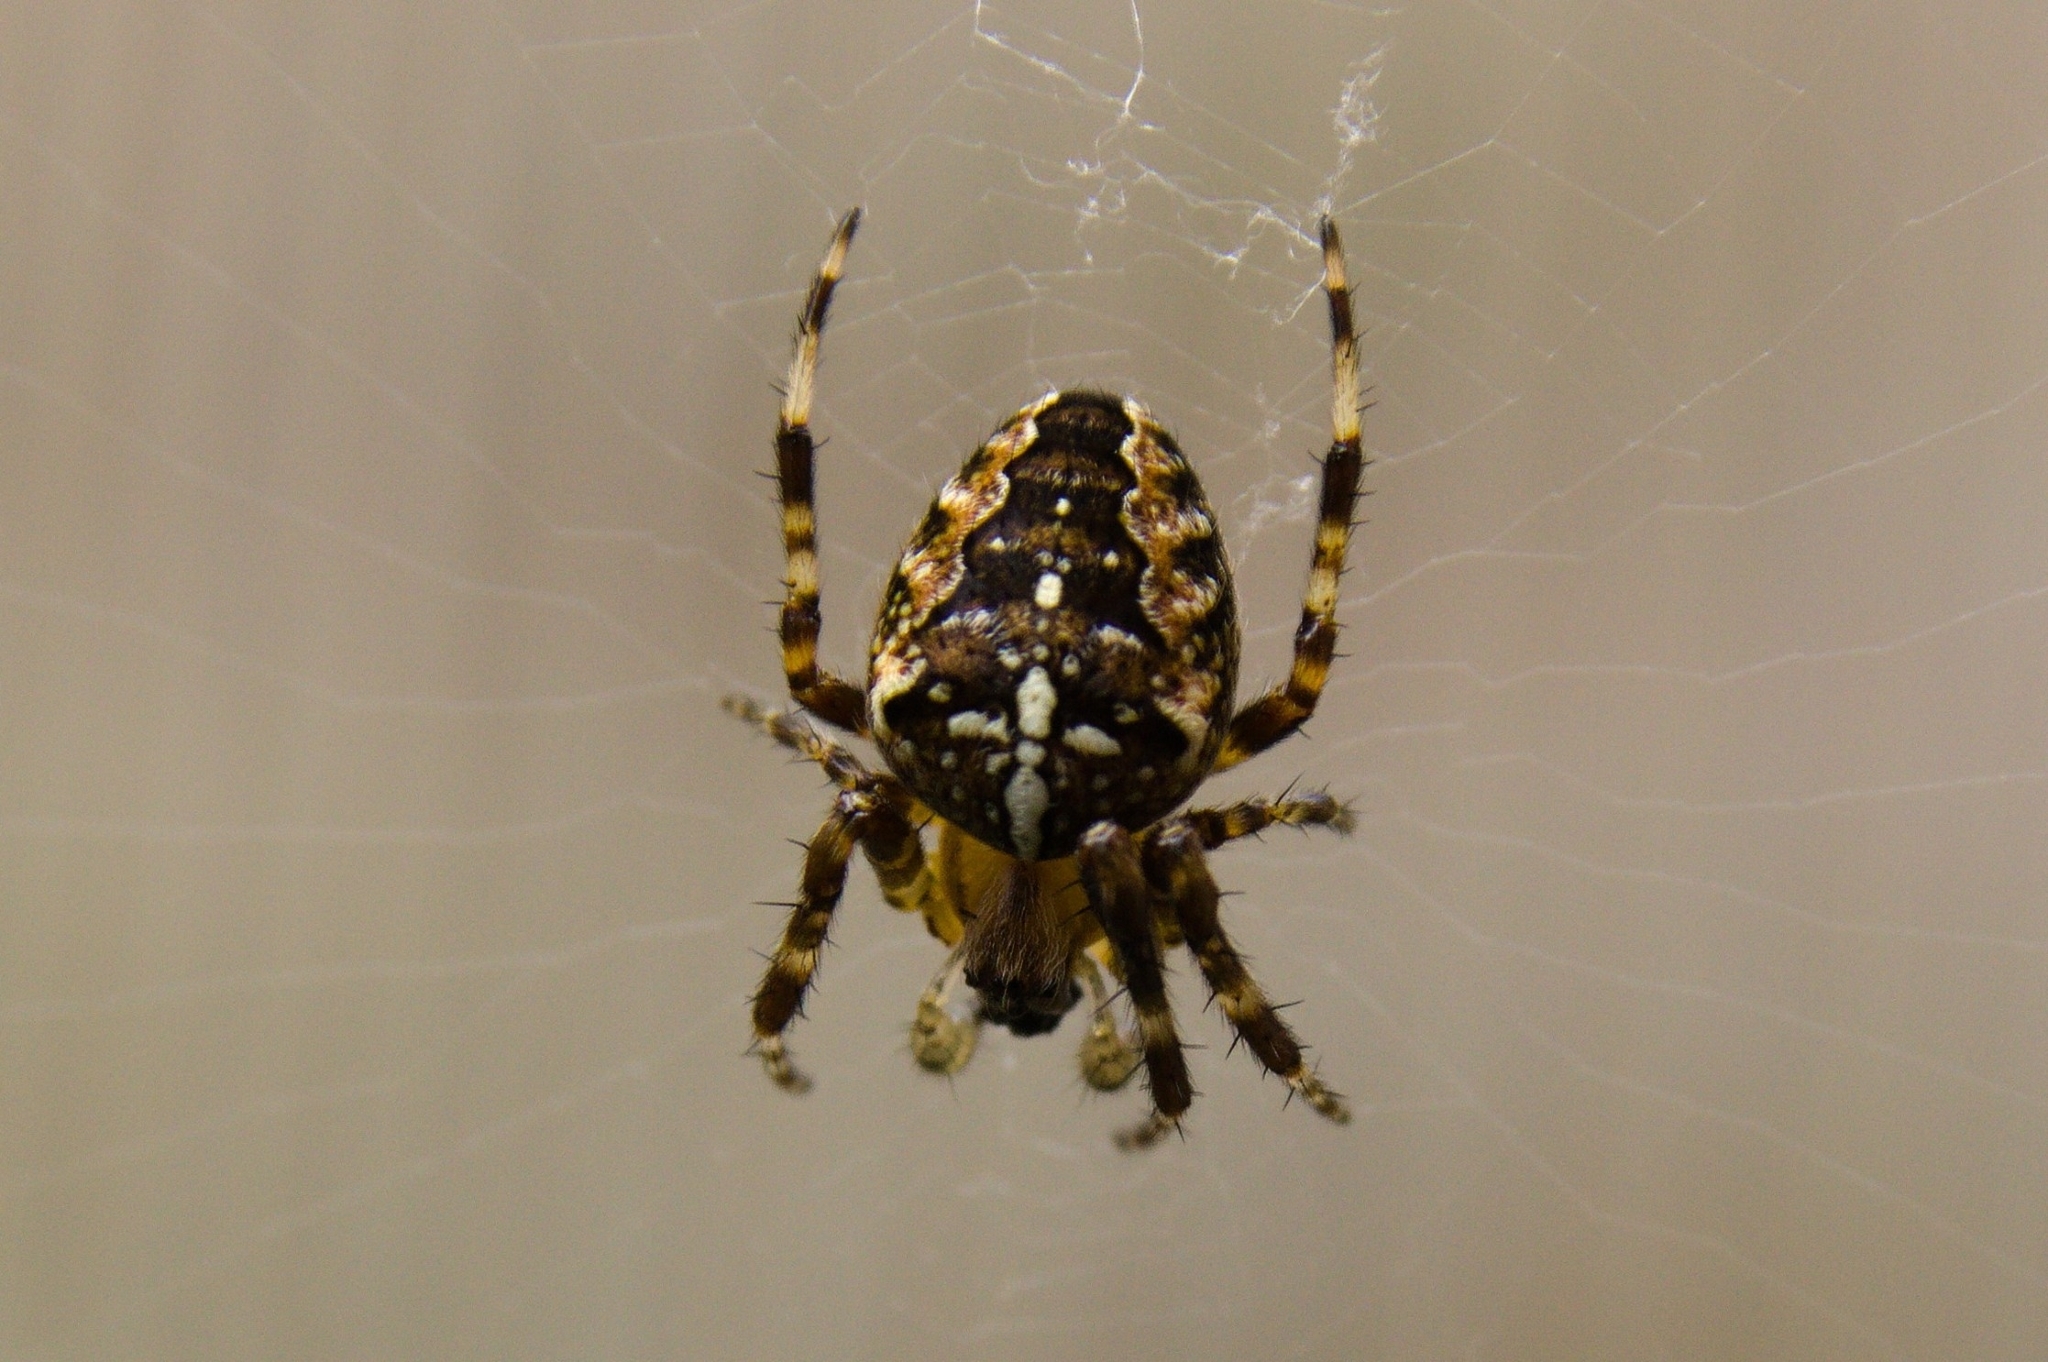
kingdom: Animalia
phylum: Arthropoda
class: Arachnida
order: Araneae
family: Araneidae
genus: Araneus
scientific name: Araneus diadematus
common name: Cross orbweaver
